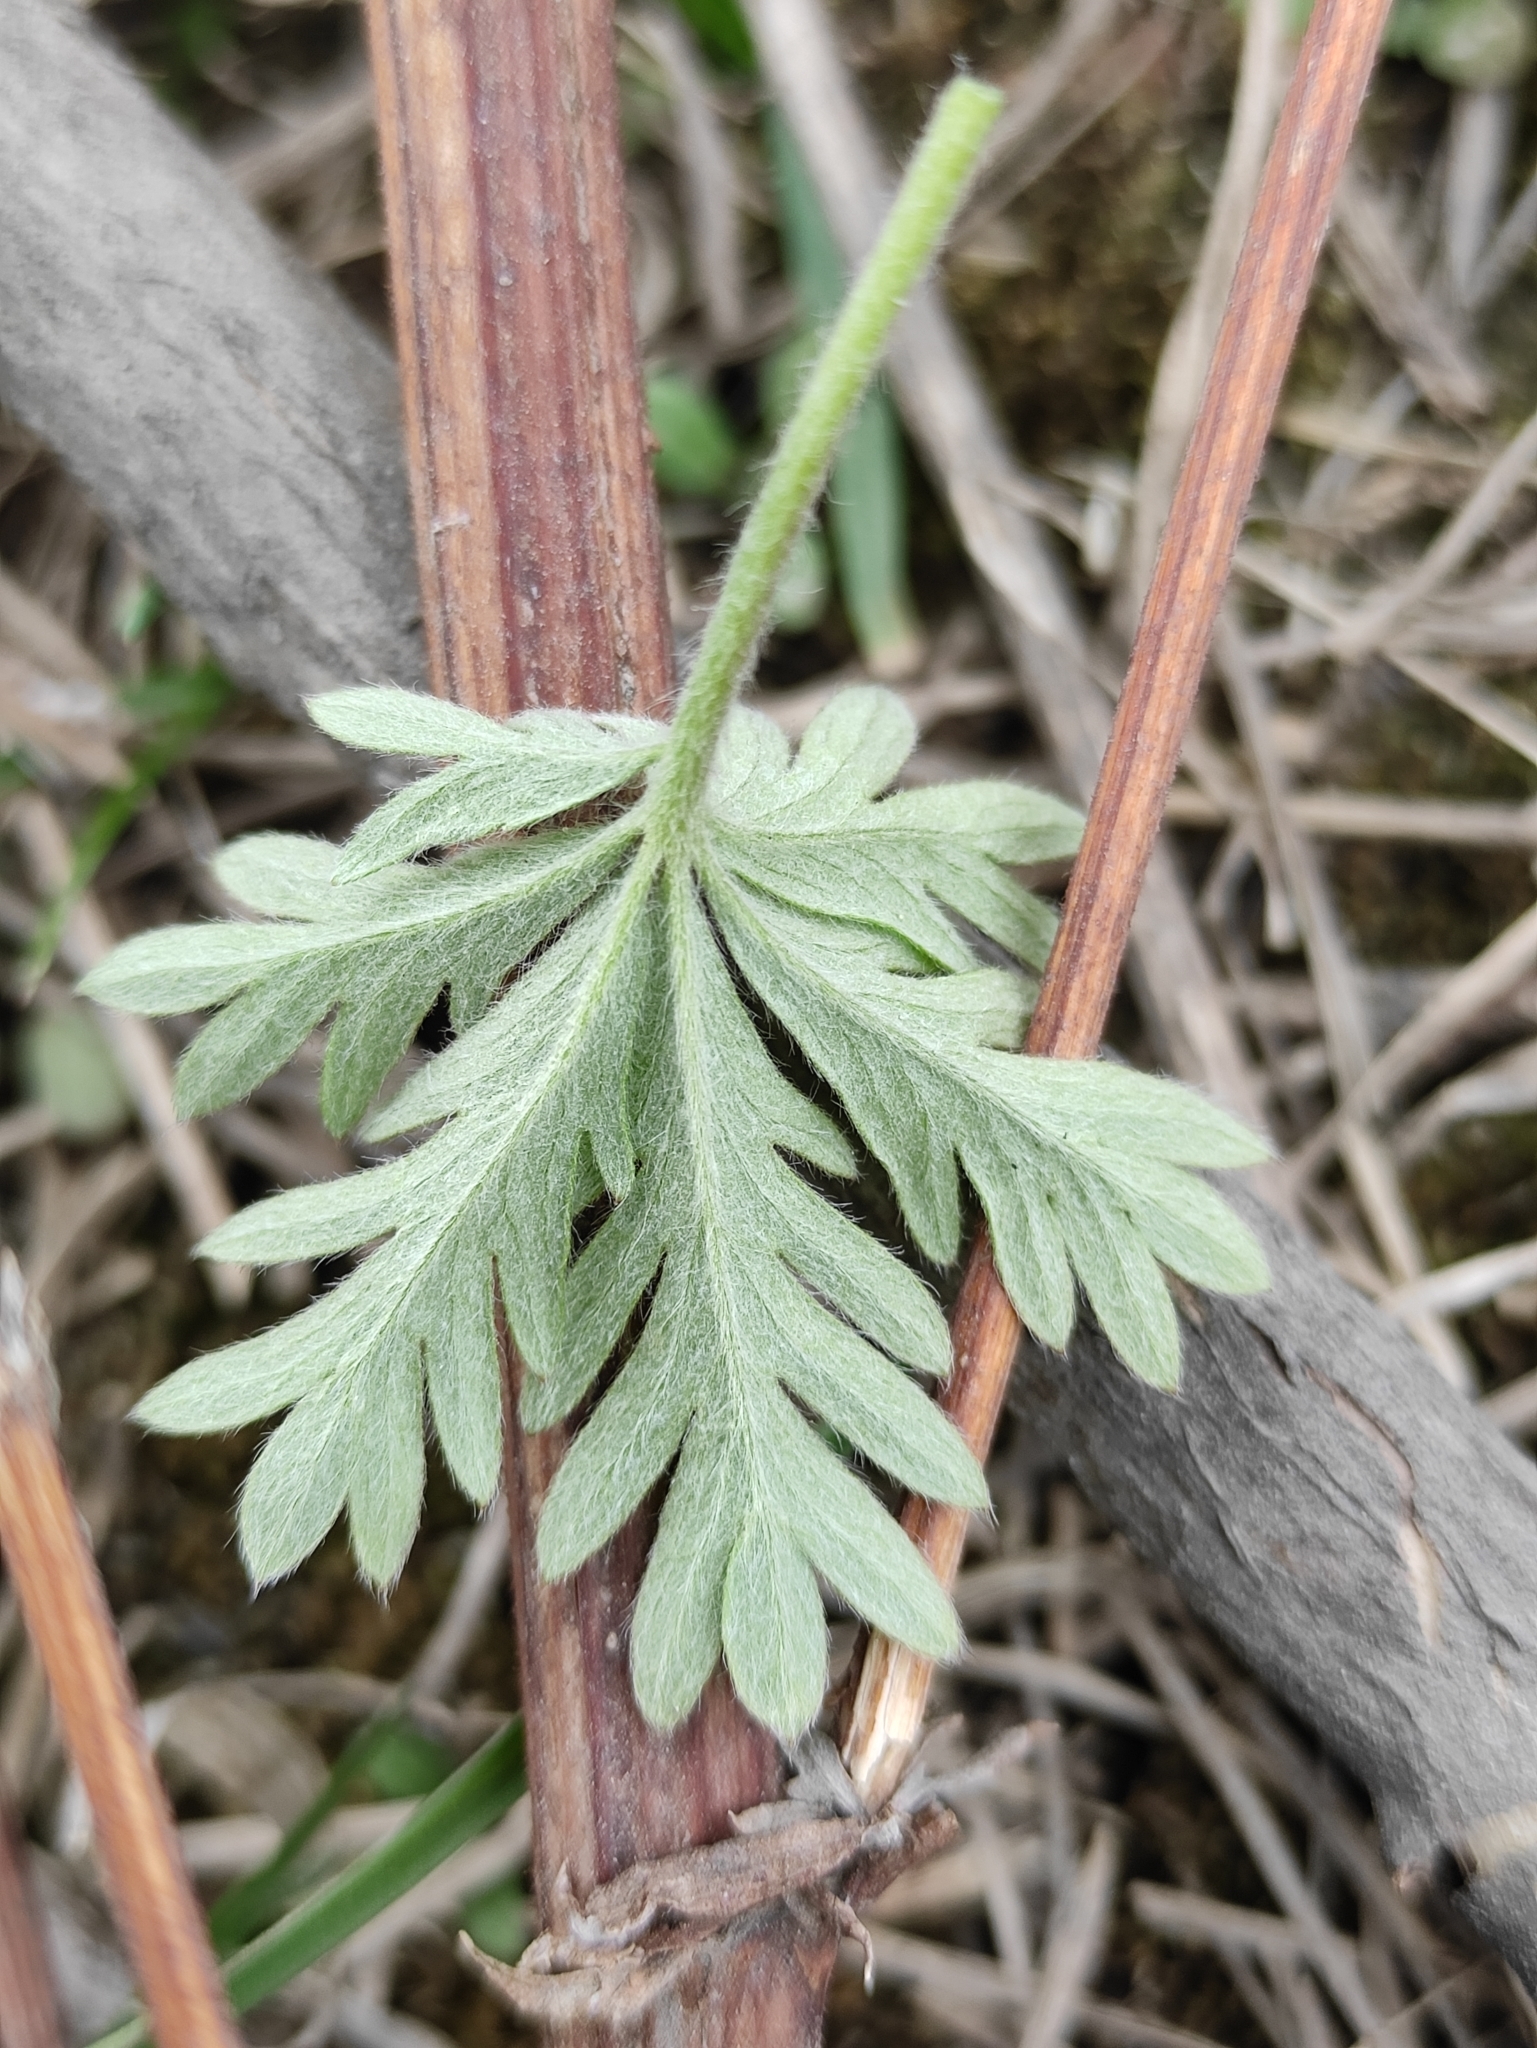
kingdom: Plantae
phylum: Tracheophyta
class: Magnoliopsida
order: Rosales
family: Rosaceae
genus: Potentilla
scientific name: Potentilla angarensis
